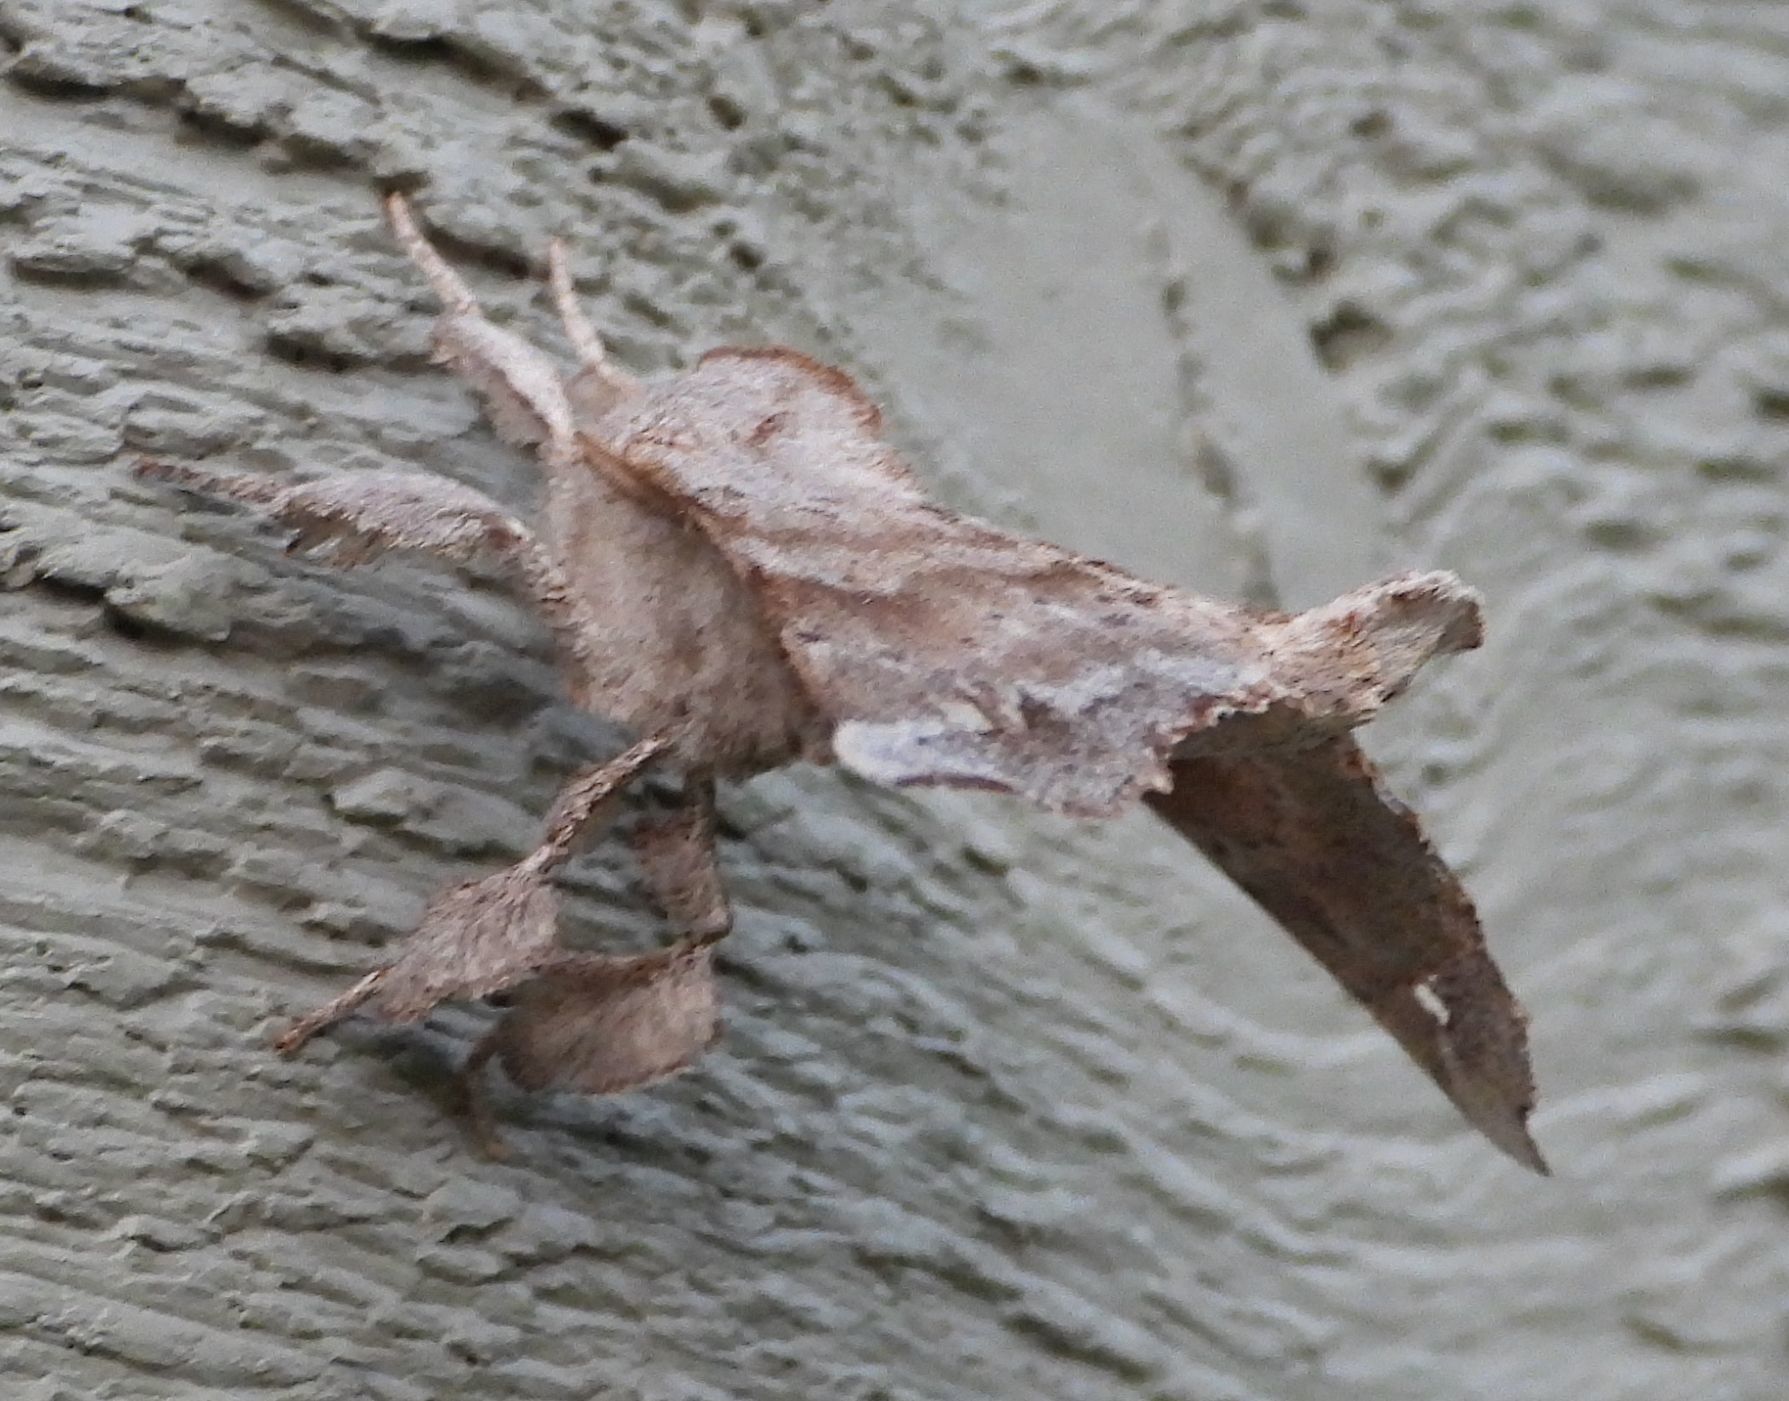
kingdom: Animalia
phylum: Arthropoda
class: Insecta
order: Lepidoptera
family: Apatelodidae
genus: Olceclostera
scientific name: Olceclostera angelica
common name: Angel moth
